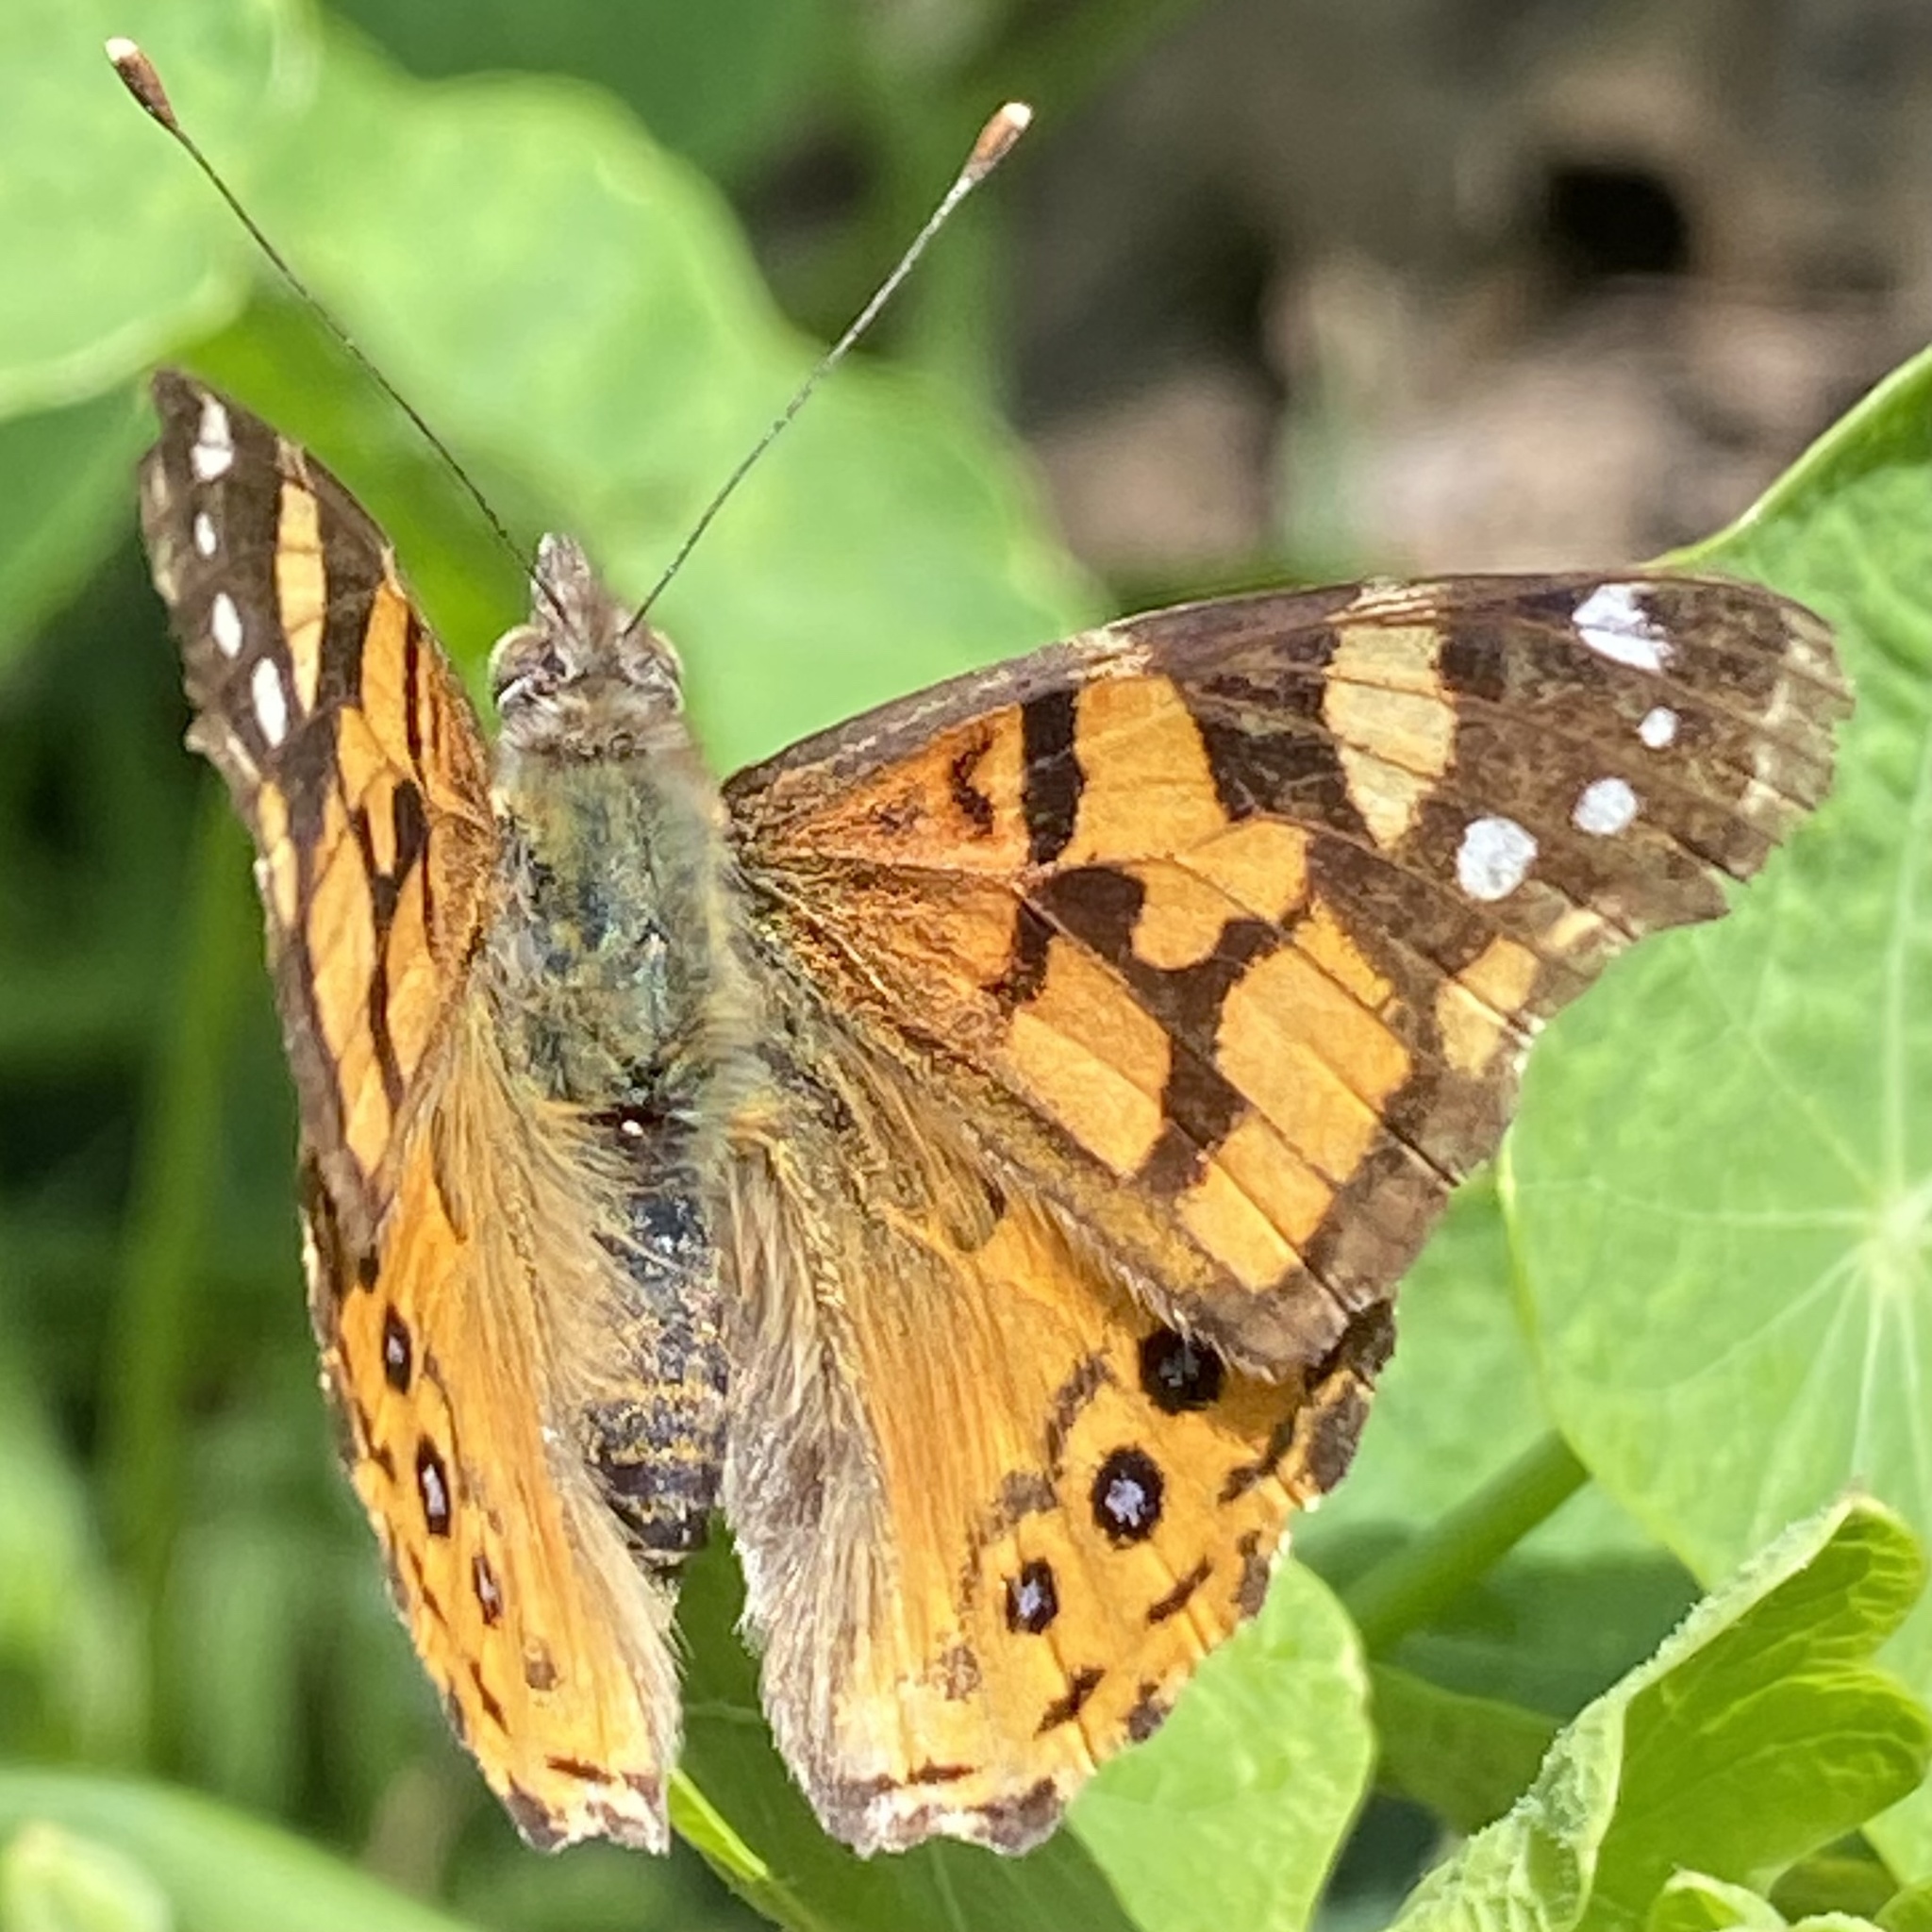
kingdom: Animalia
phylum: Arthropoda
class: Insecta
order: Lepidoptera
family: Nymphalidae
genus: Vanessa
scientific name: Vanessa annabella
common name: West coast lady
